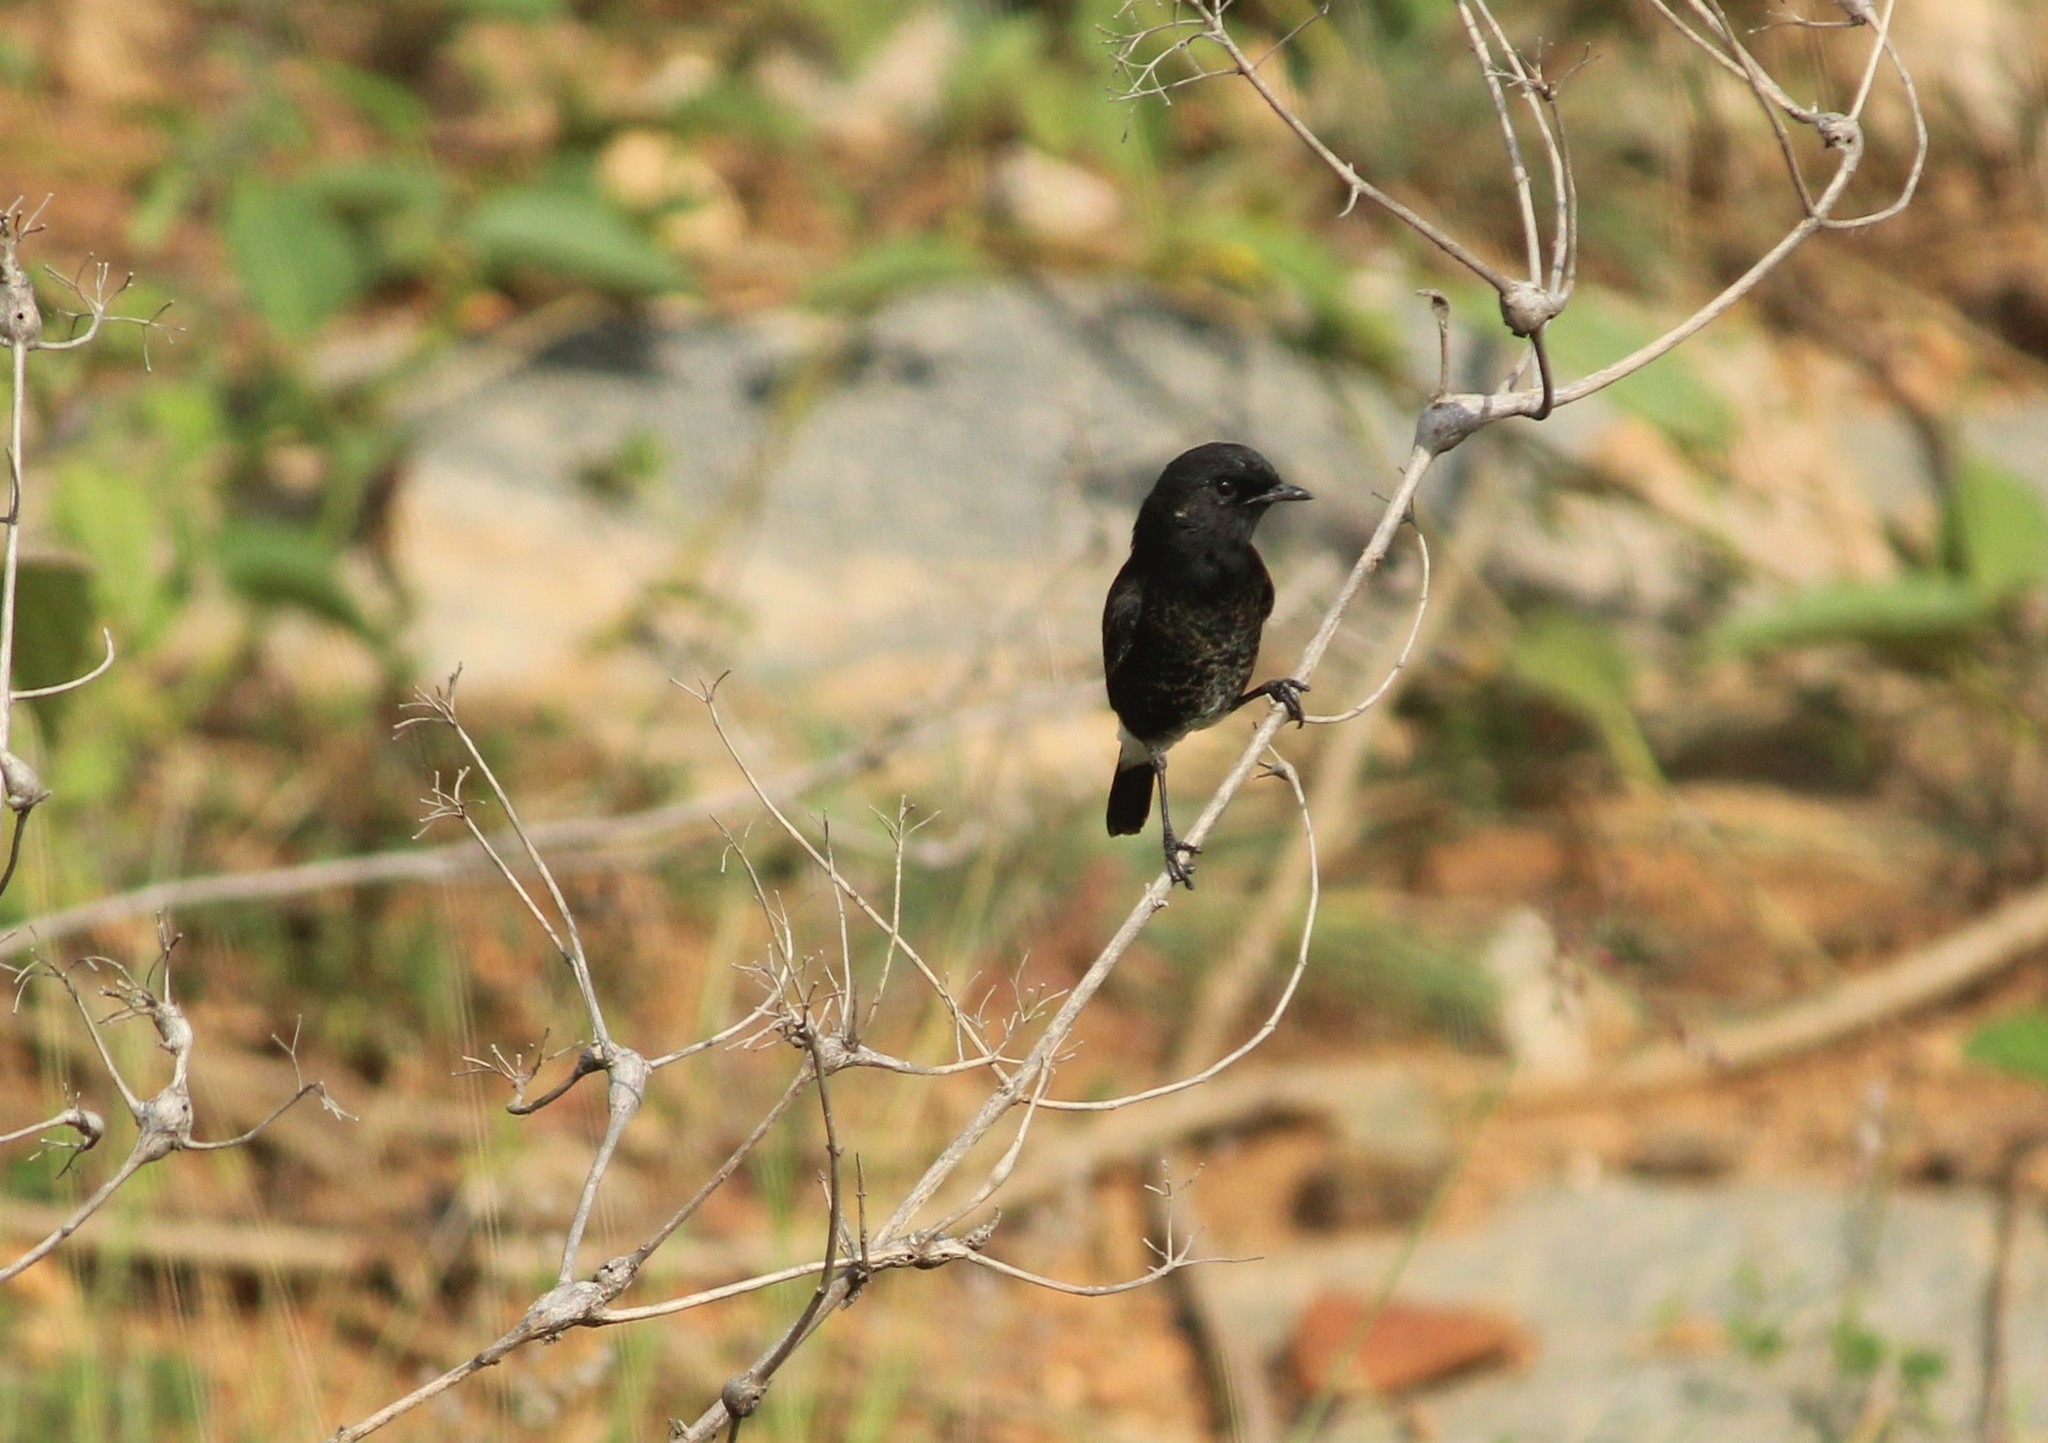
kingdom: Animalia
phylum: Chordata
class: Aves
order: Passeriformes
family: Muscicapidae
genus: Saxicola
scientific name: Saxicola caprata
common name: Pied bush chat
